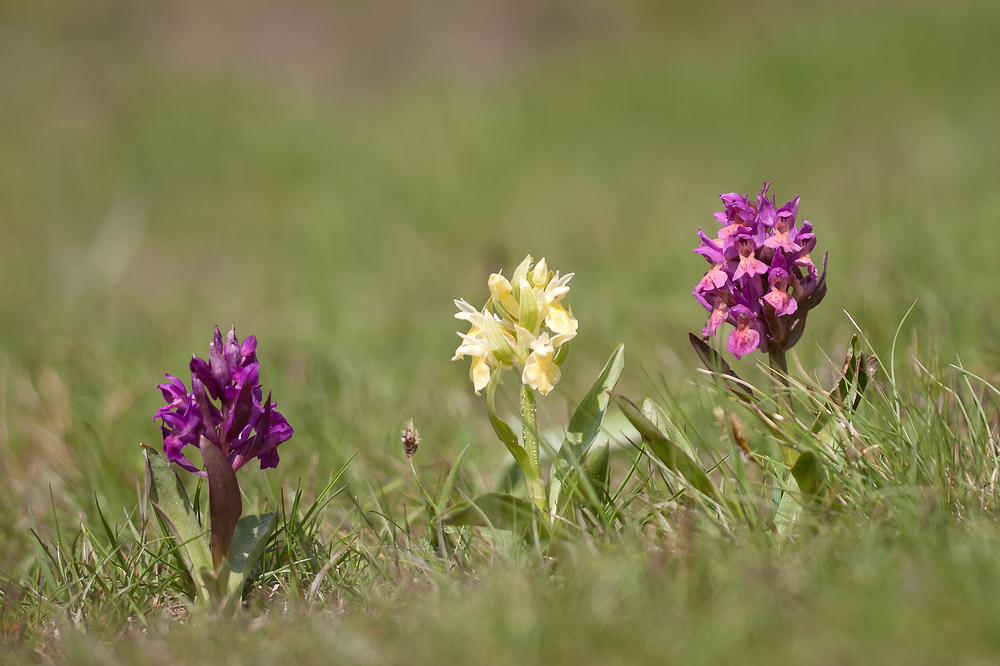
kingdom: Plantae
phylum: Tracheophyta
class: Liliopsida
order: Asparagales
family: Orchidaceae
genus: Dactylorhiza
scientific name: Dactylorhiza sambucina
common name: Elder-flowered orchid
